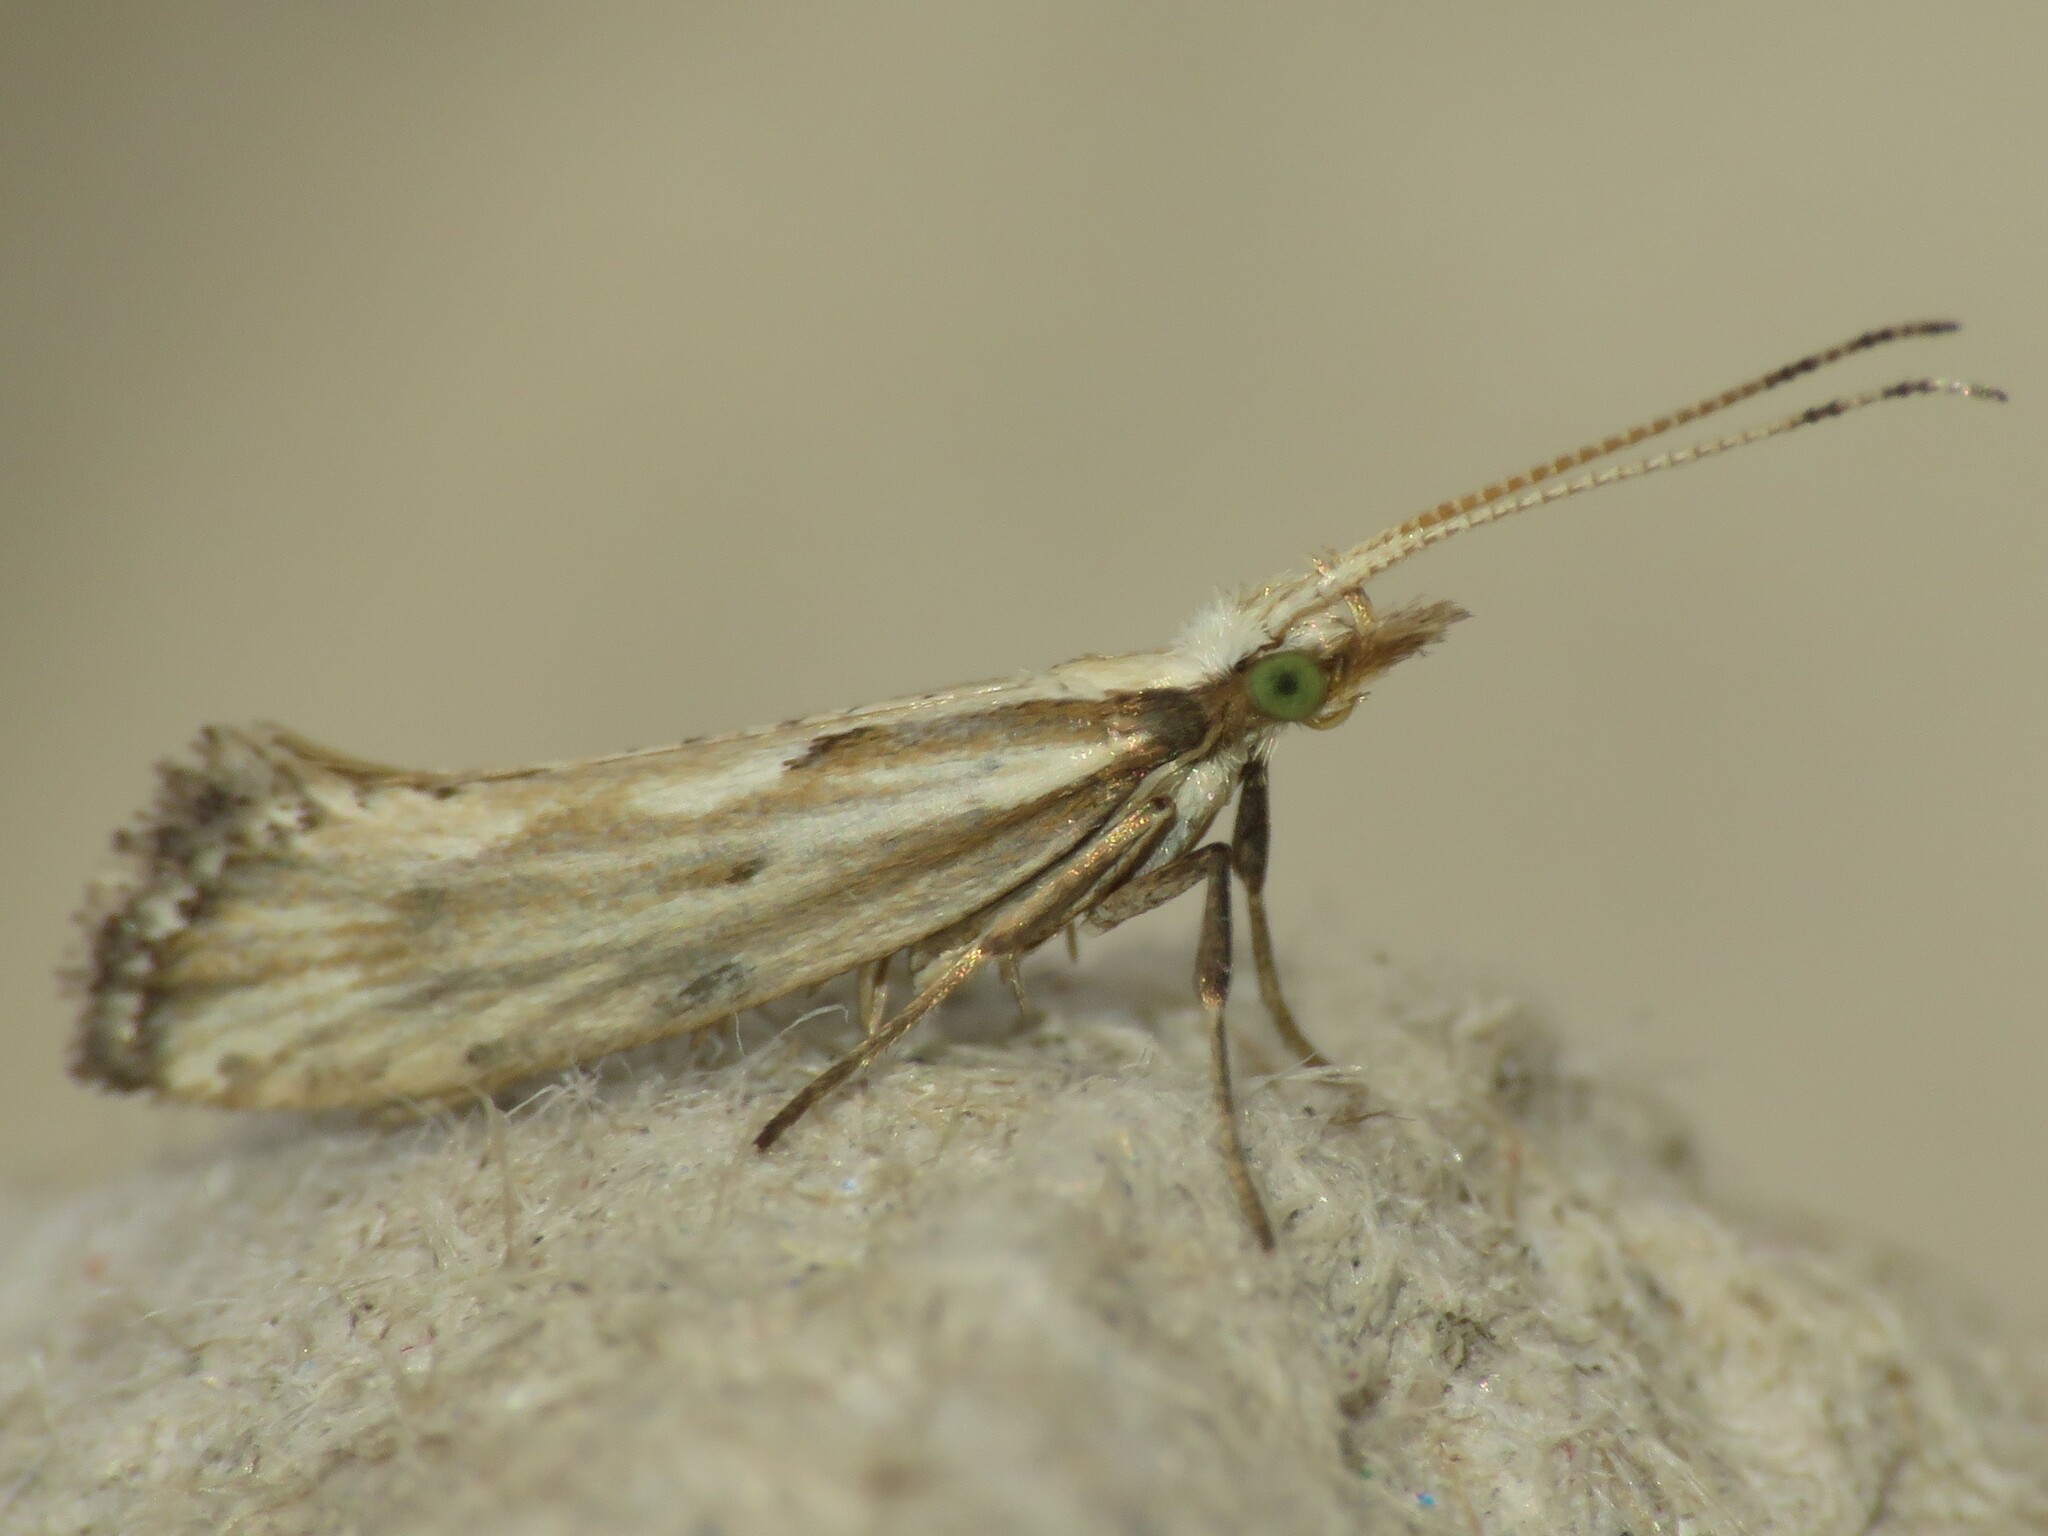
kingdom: Animalia
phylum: Arthropoda
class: Insecta
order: Lepidoptera
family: Plutellidae
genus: Plutella
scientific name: Plutella porrectella
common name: Dame's rocket moth
